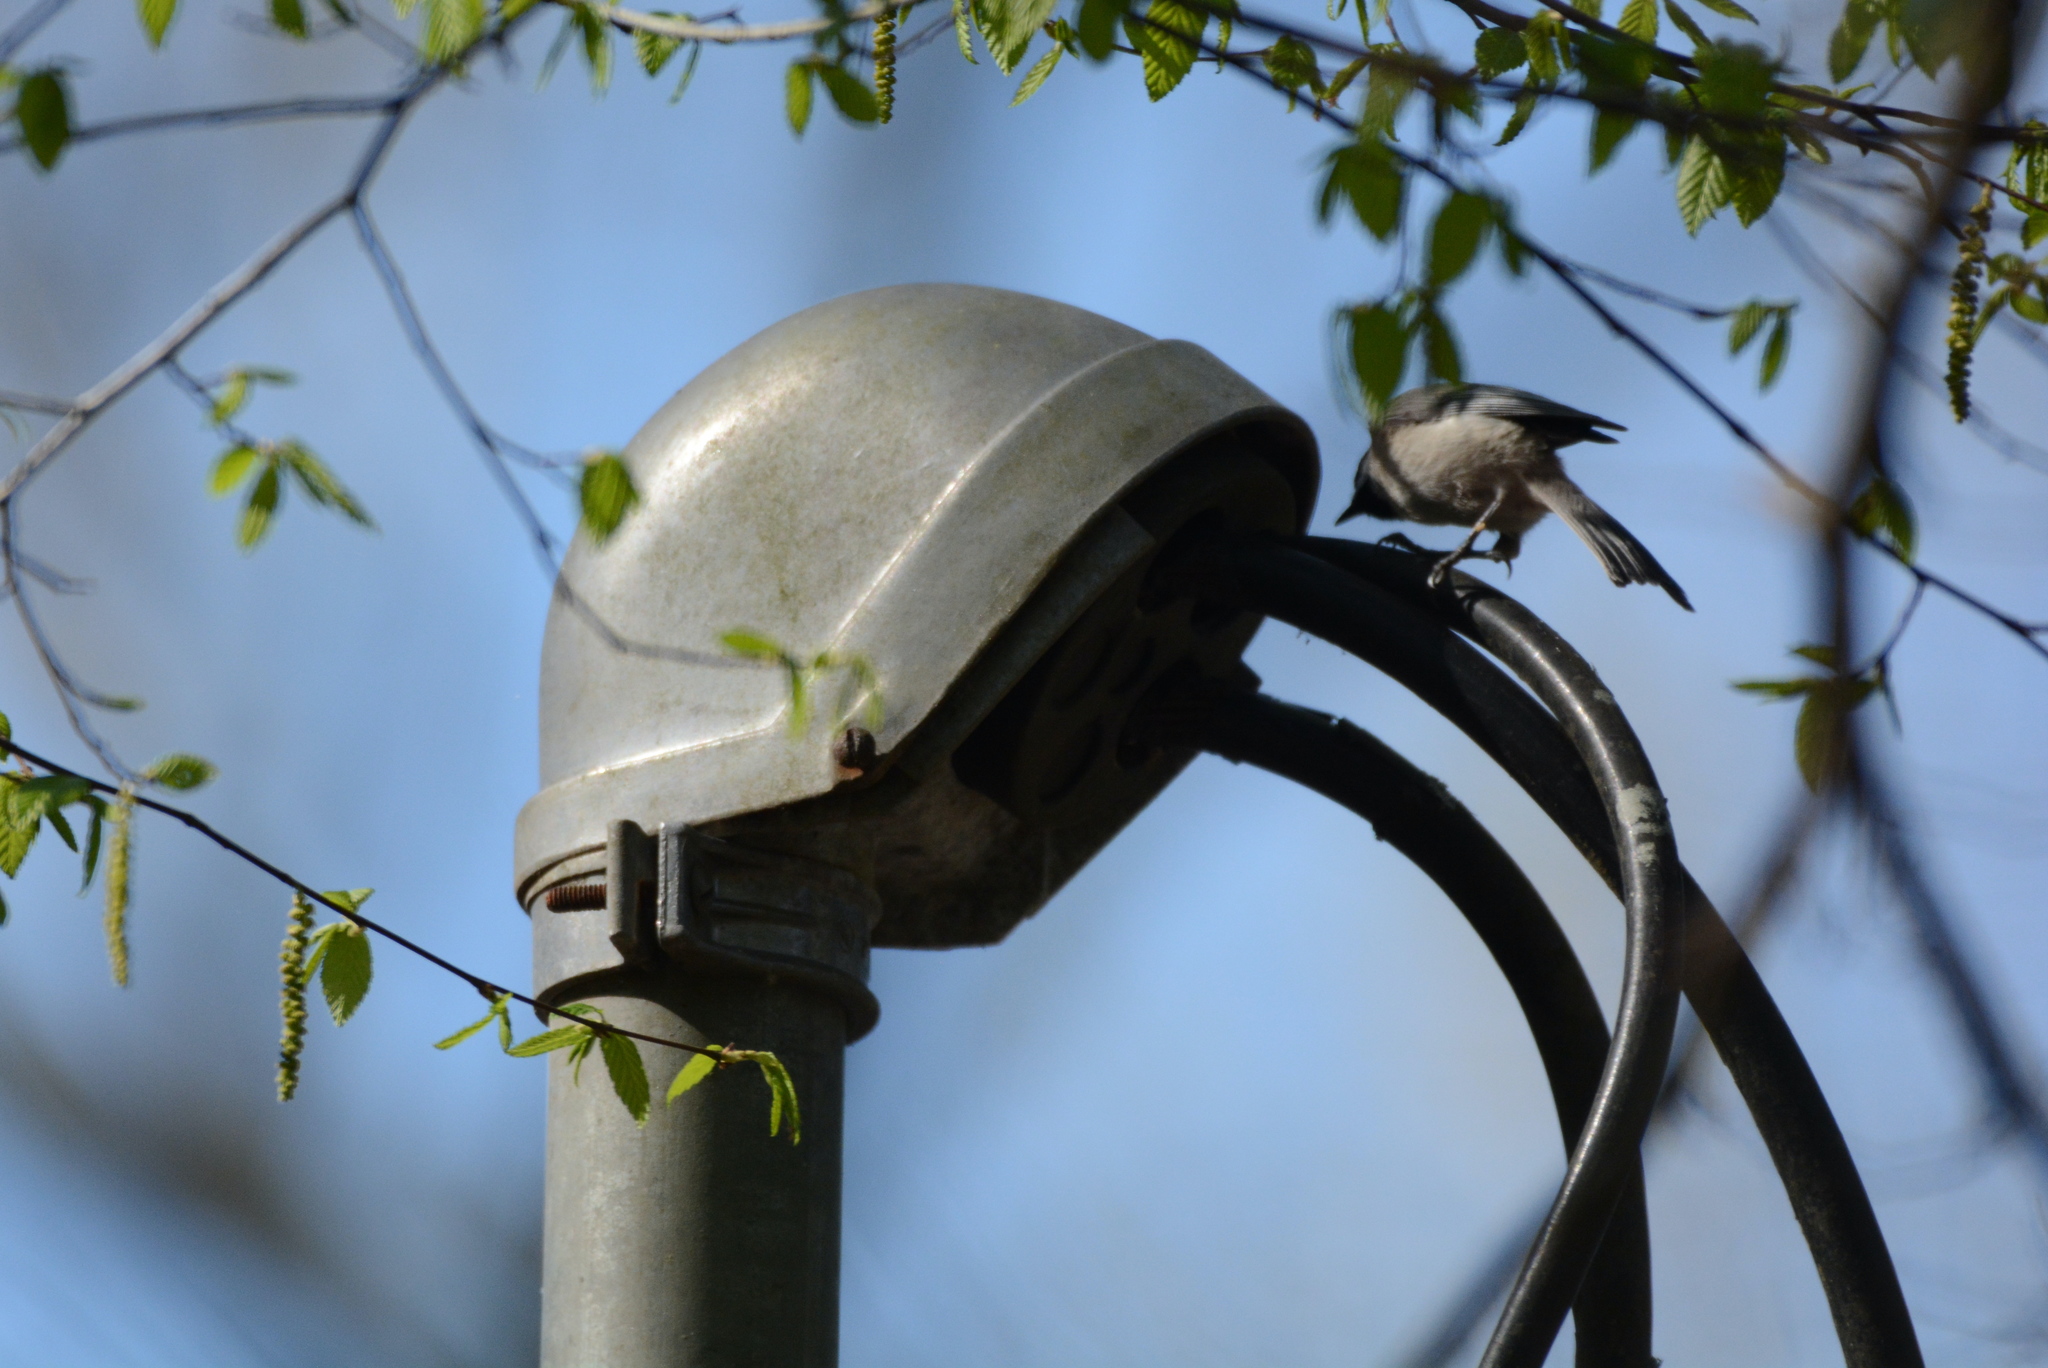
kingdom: Animalia
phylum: Chordata
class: Aves
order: Passeriformes
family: Paridae
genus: Poecile
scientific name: Poecile carolinensis
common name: Carolina chickadee
